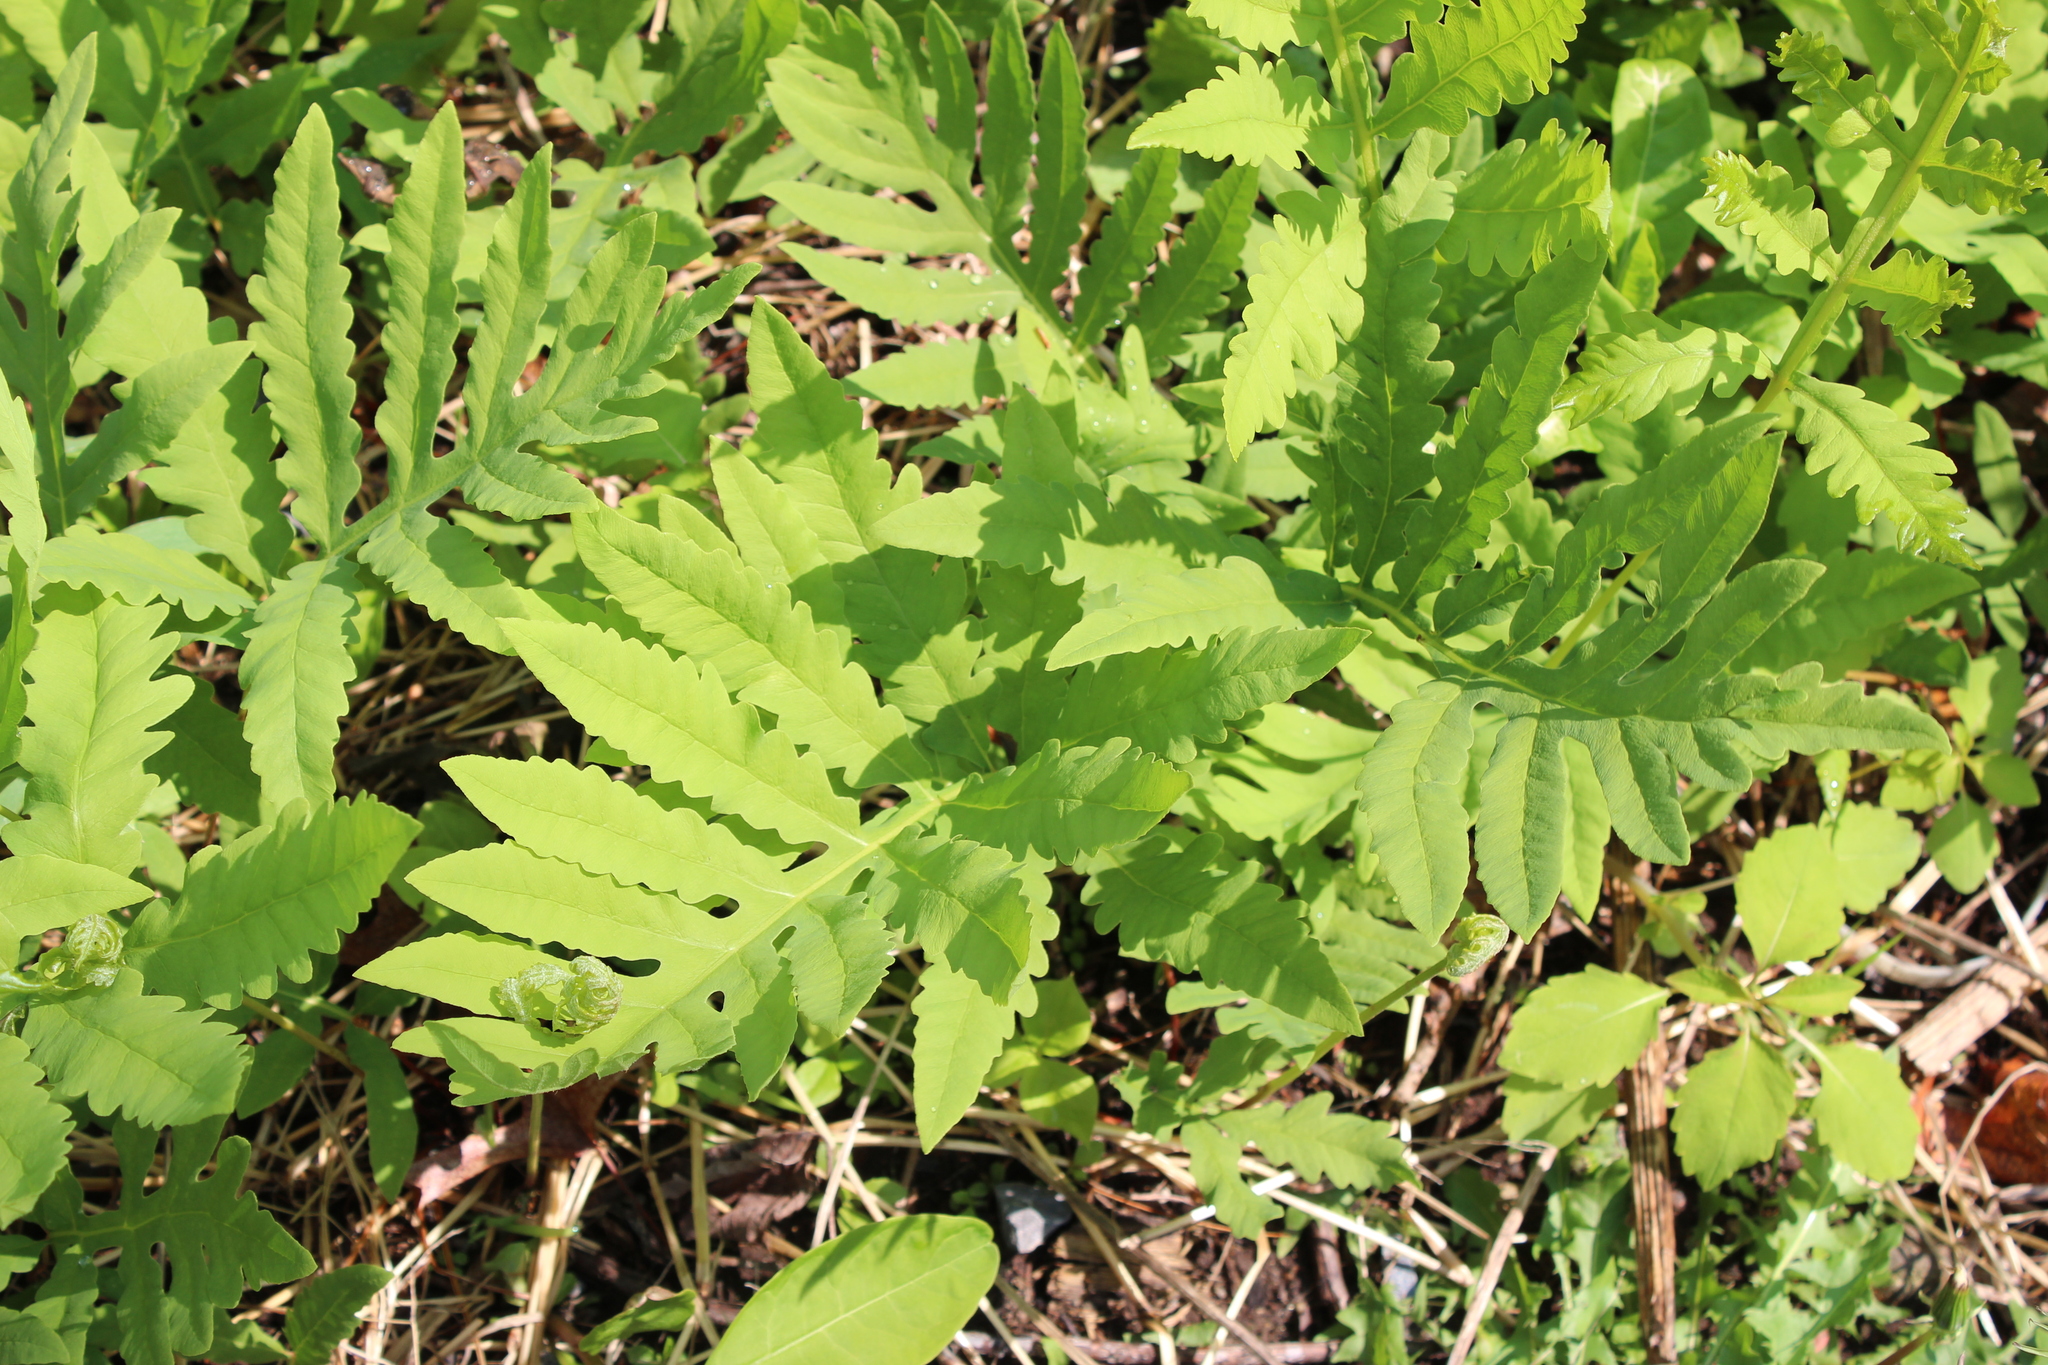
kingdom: Plantae
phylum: Tracheophyta
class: Polypodiopsida
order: Polypodiales
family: Onocleaceae
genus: Onoclea
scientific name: Onoclea sensibilis
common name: Sensitive fern
